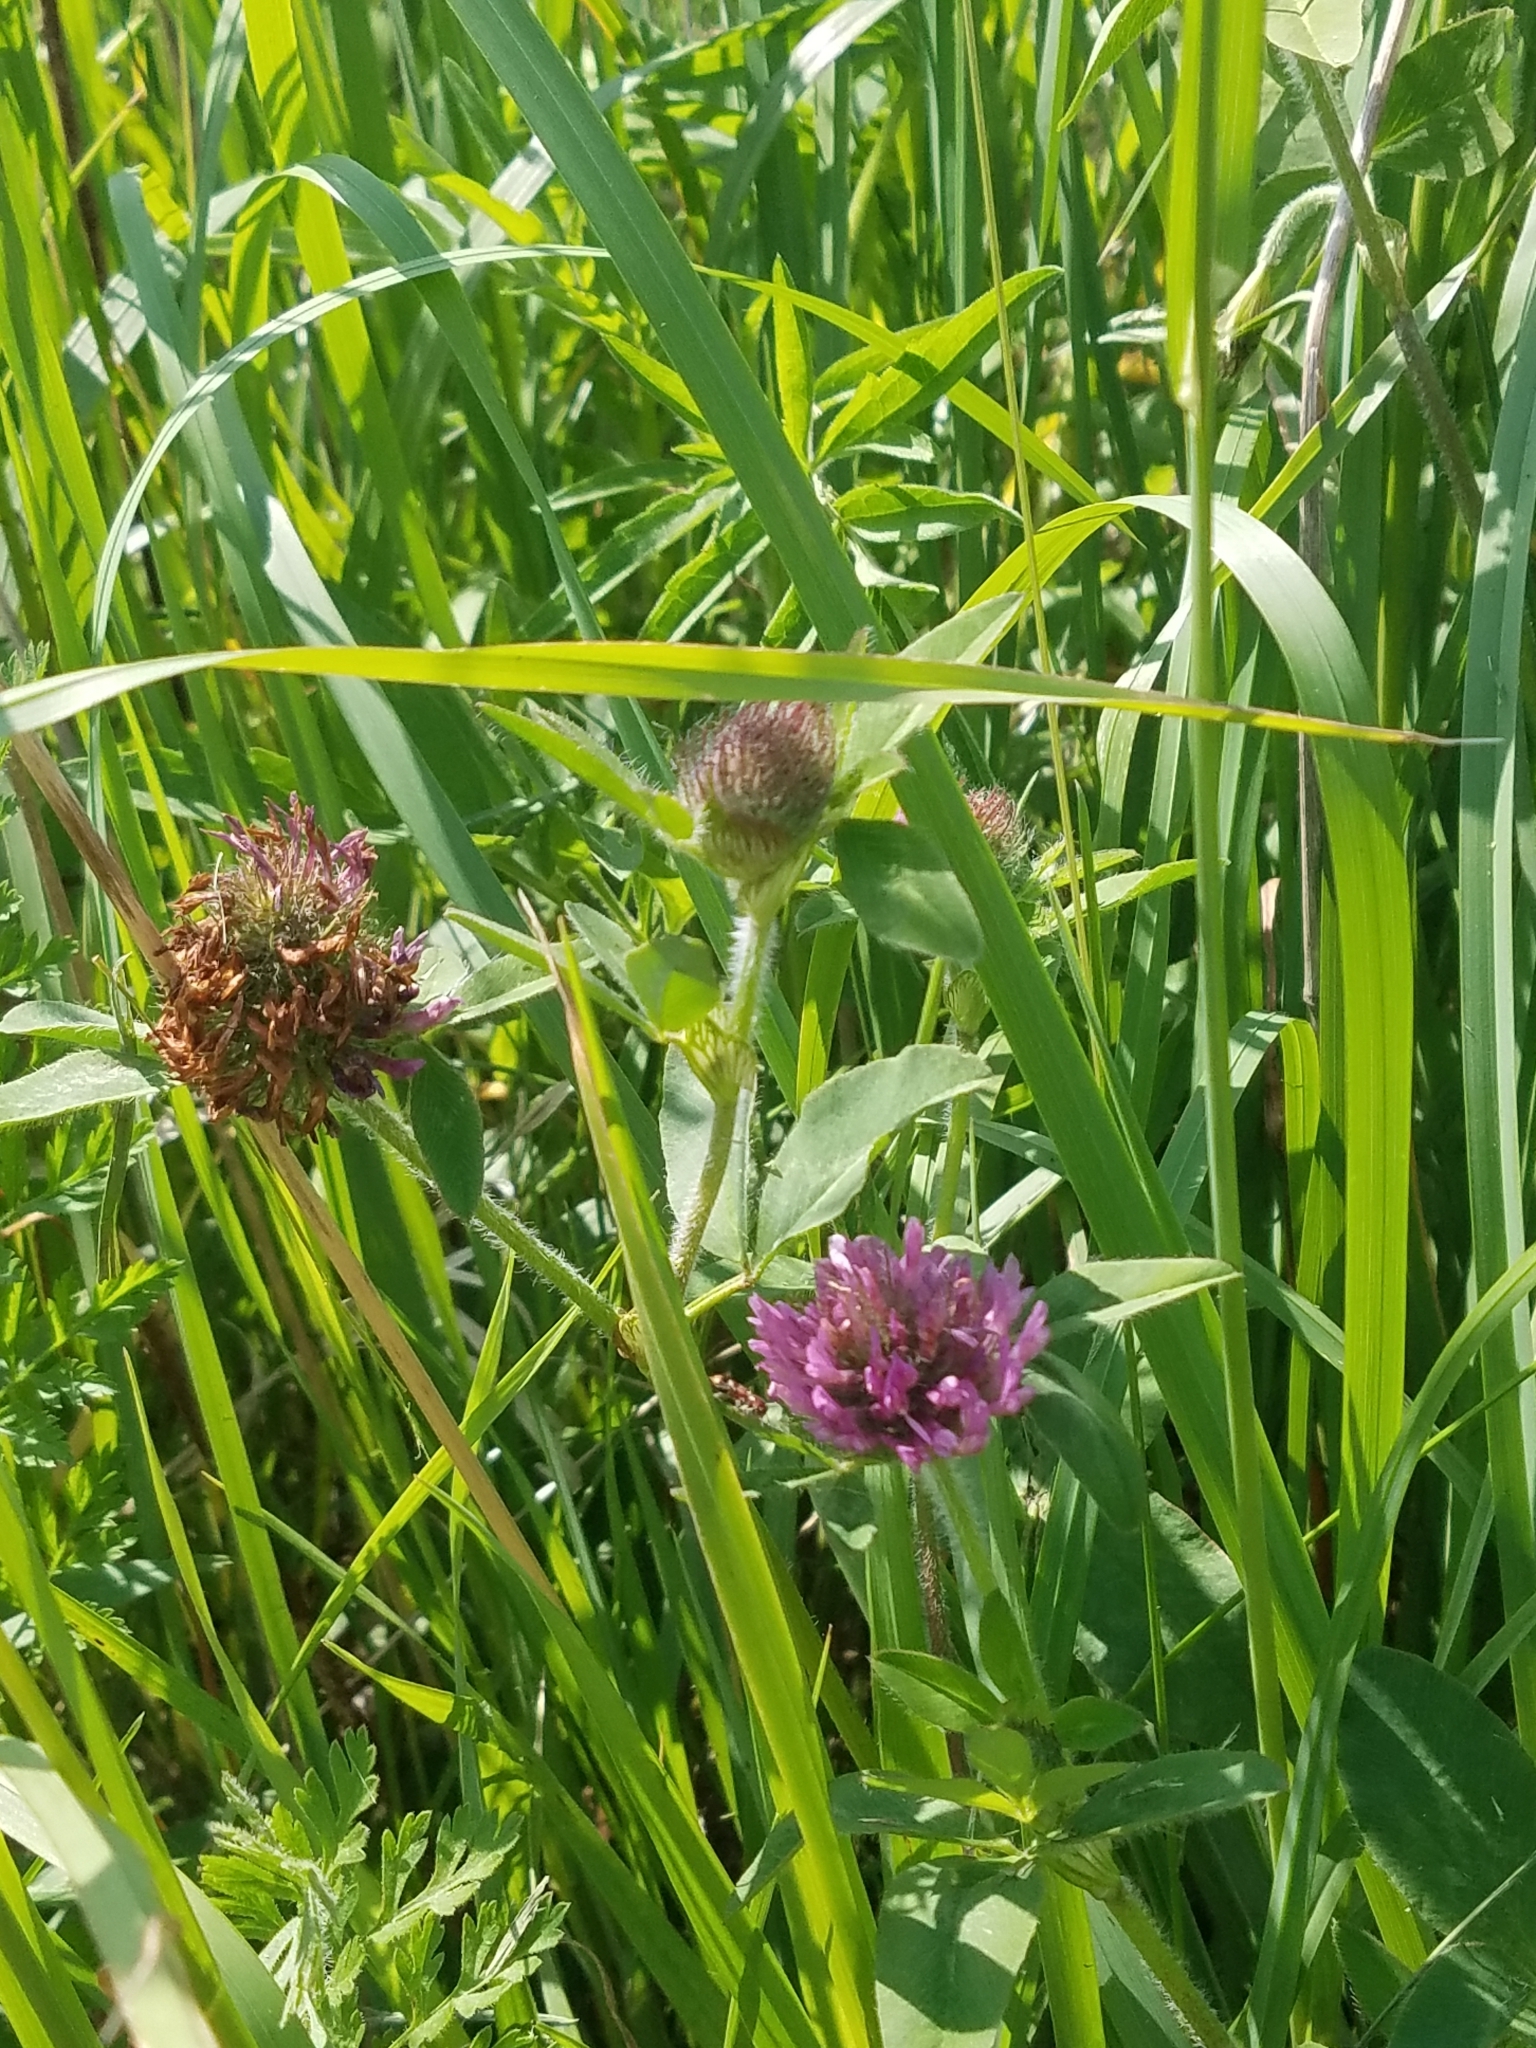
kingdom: Plantae
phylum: Tracheophyta
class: Magnoliopsida
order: Fabales
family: Fabaceae
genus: Trifolium
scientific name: Trifolium pratense
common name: Red clover
